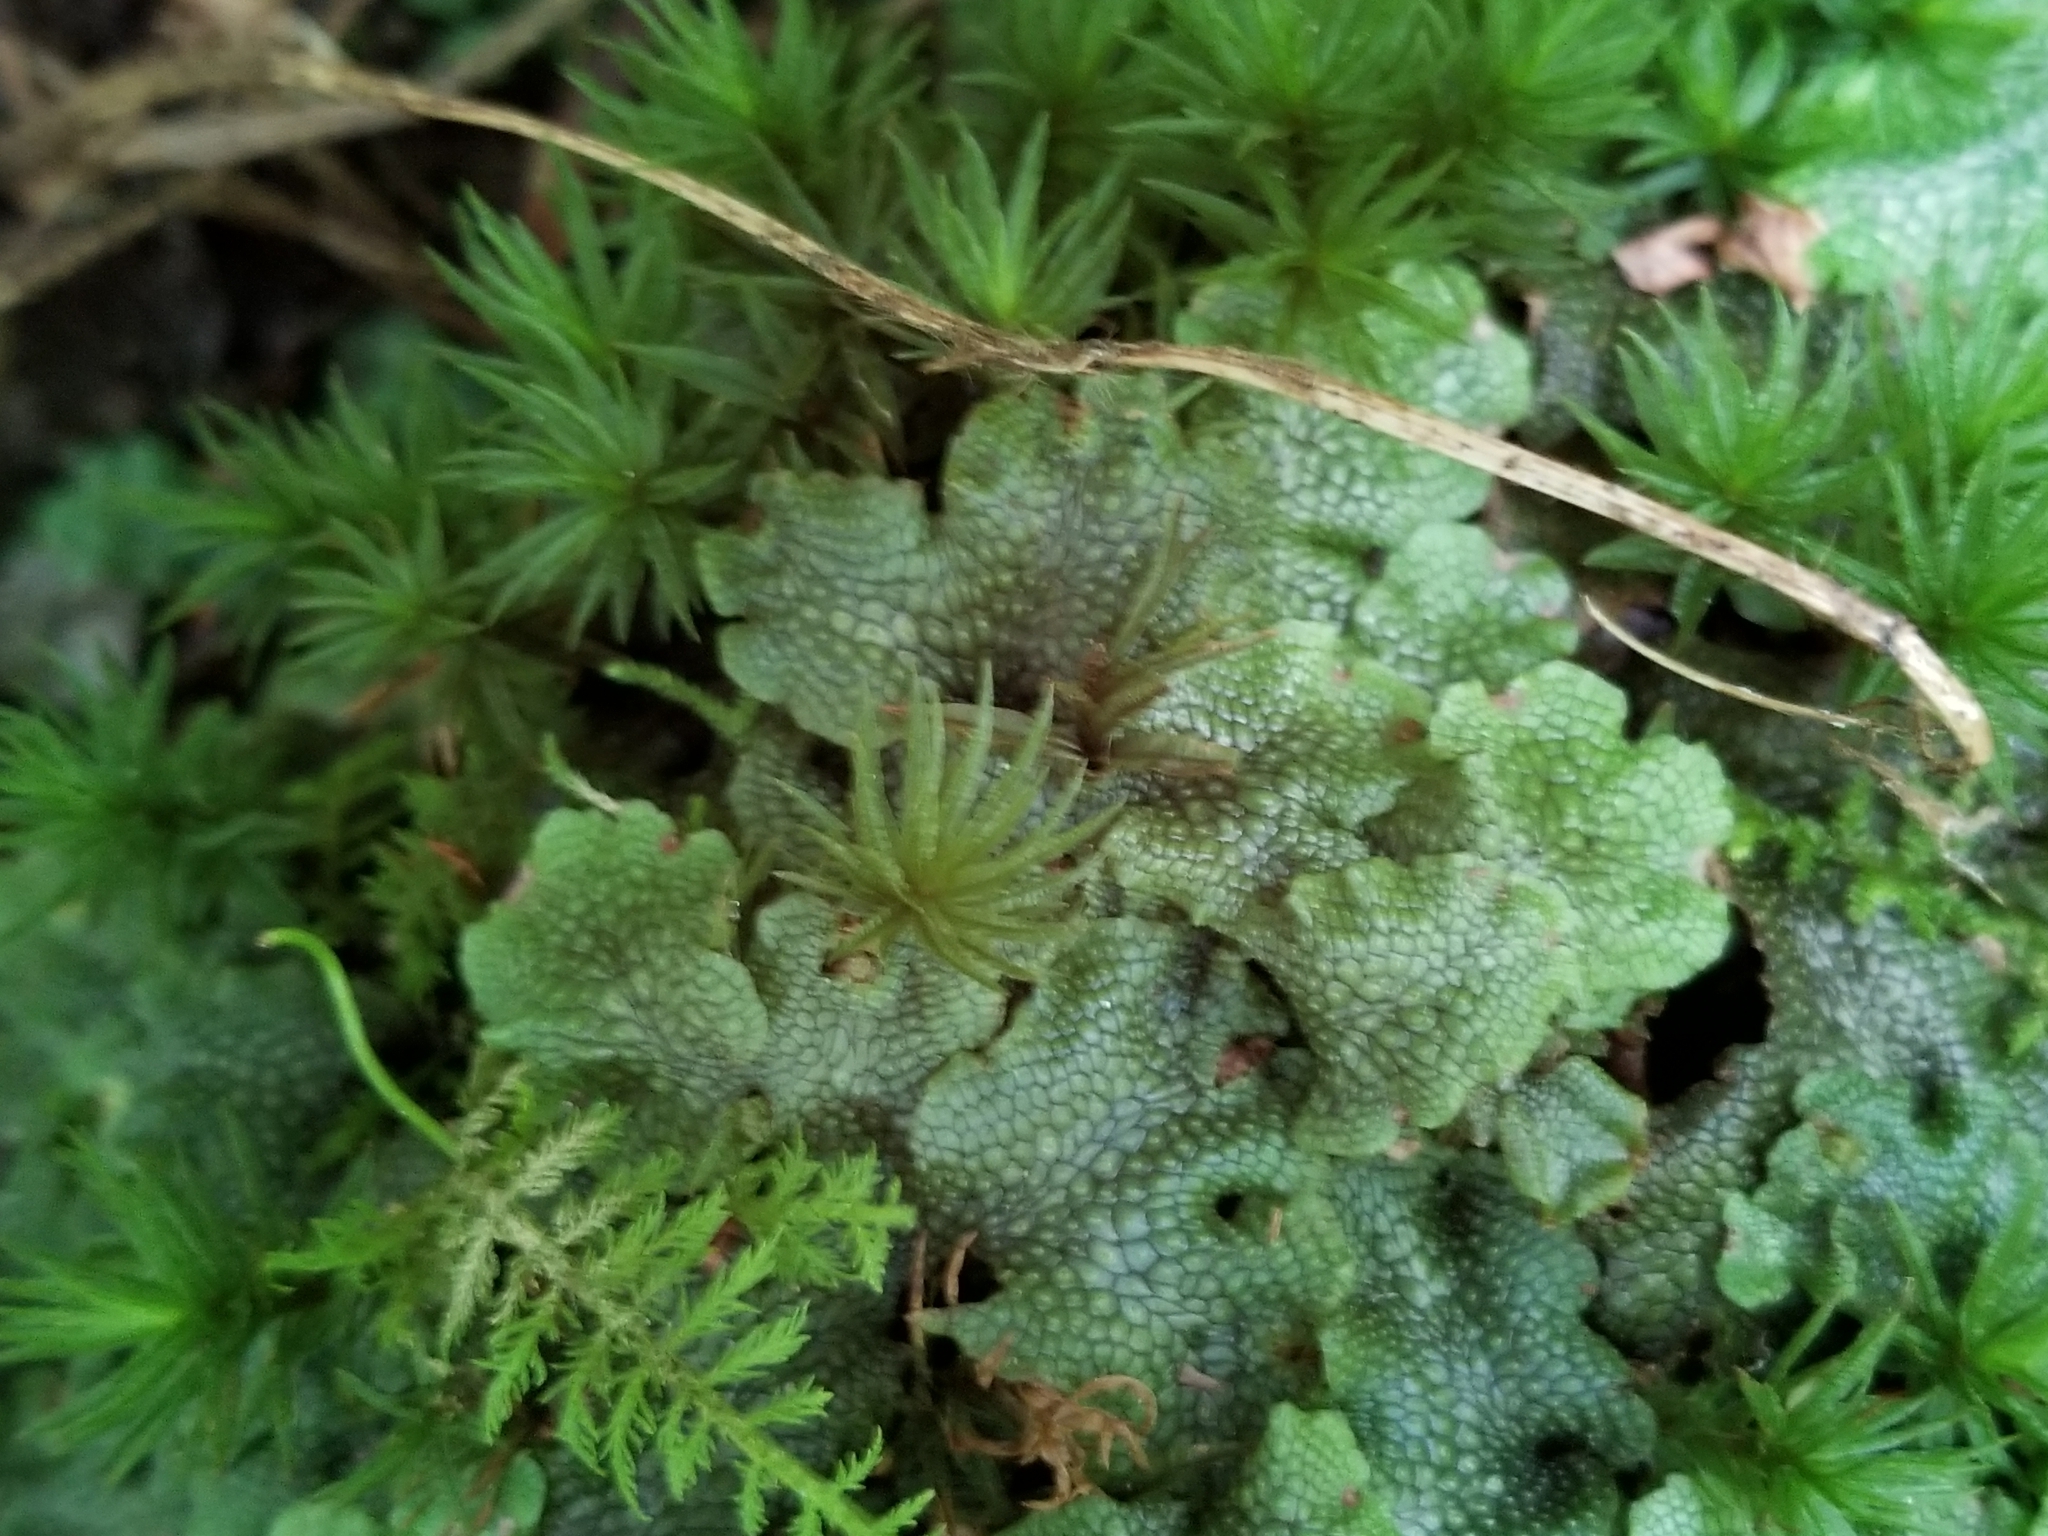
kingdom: Plantae
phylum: Marchantiophyta
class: Marchantiopsida
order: Marchantiales
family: Conocephalaceae
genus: Conocephalum
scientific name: Conocephalum salebrosum
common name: Cat-tongue liverwort
